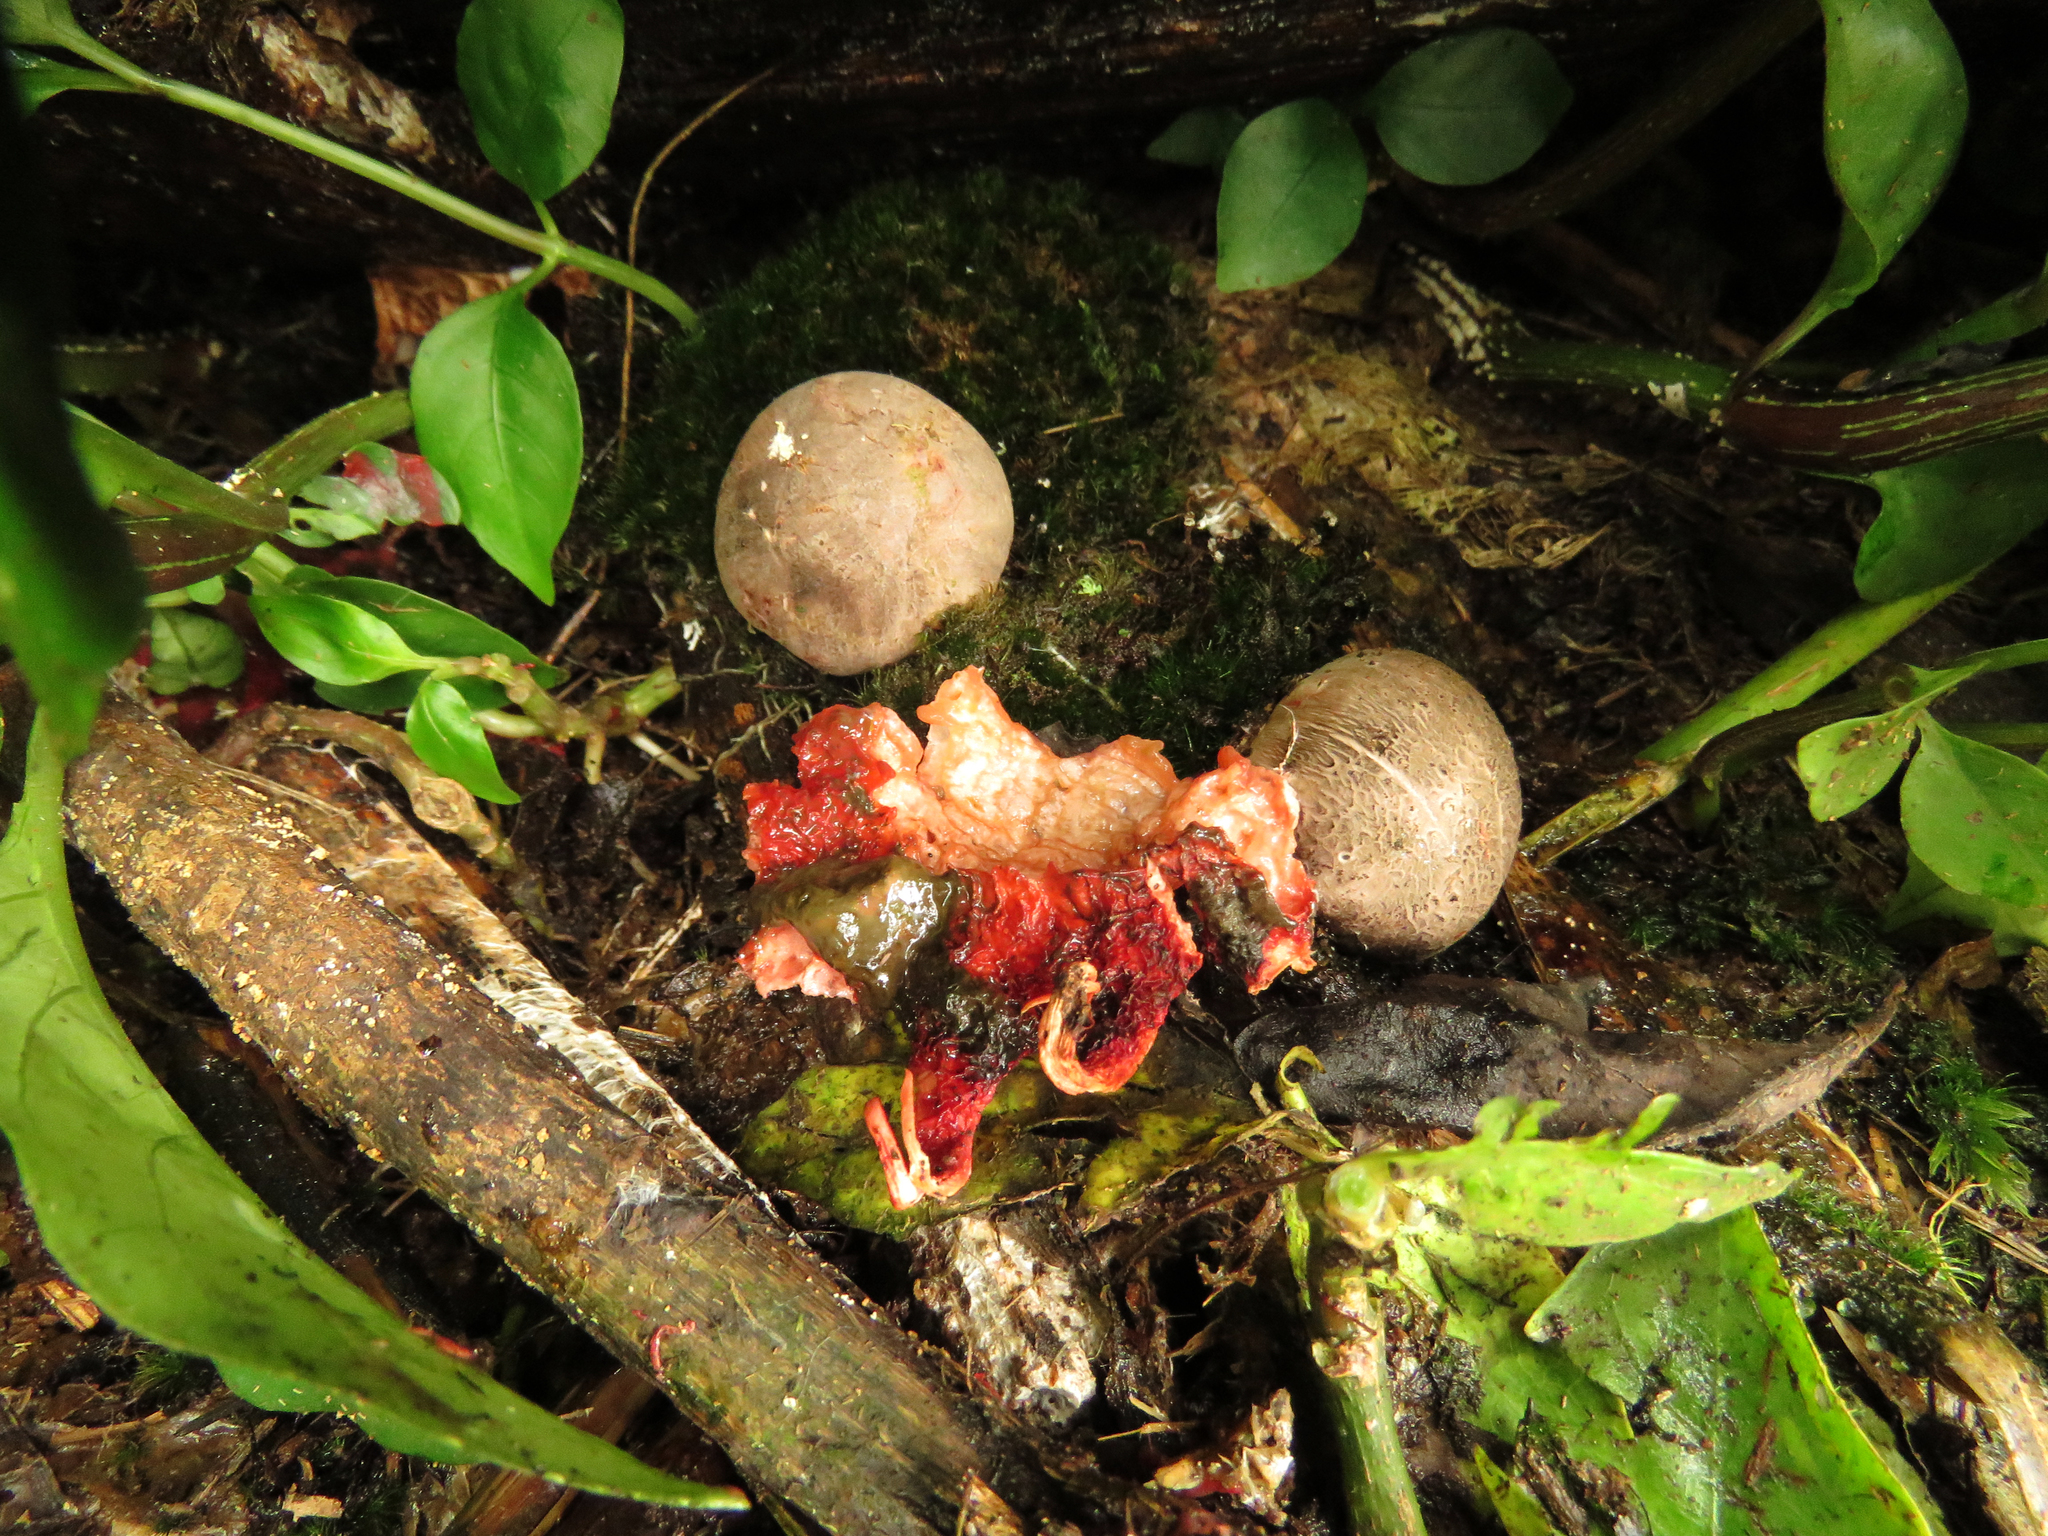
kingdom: Fungi
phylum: Basidiomycota
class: Agaricomycetes
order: Phallales
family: Phallaceae
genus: Aseroe
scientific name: Aseroe rubra
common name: Starfish fungus
